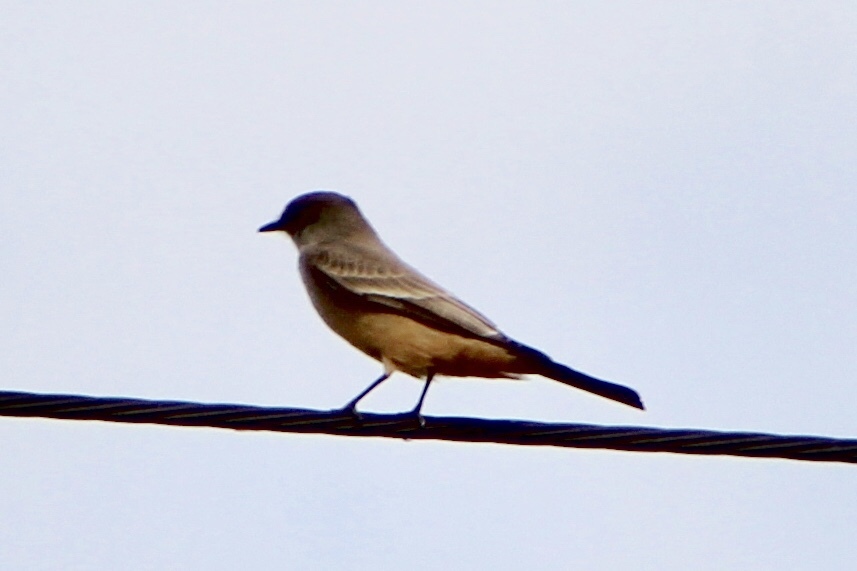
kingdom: Animalia
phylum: Chordata
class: Aves
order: Passeriformes
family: Tyrannidae
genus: Sayornis
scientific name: Sayornis saya
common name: Say's phoebe
